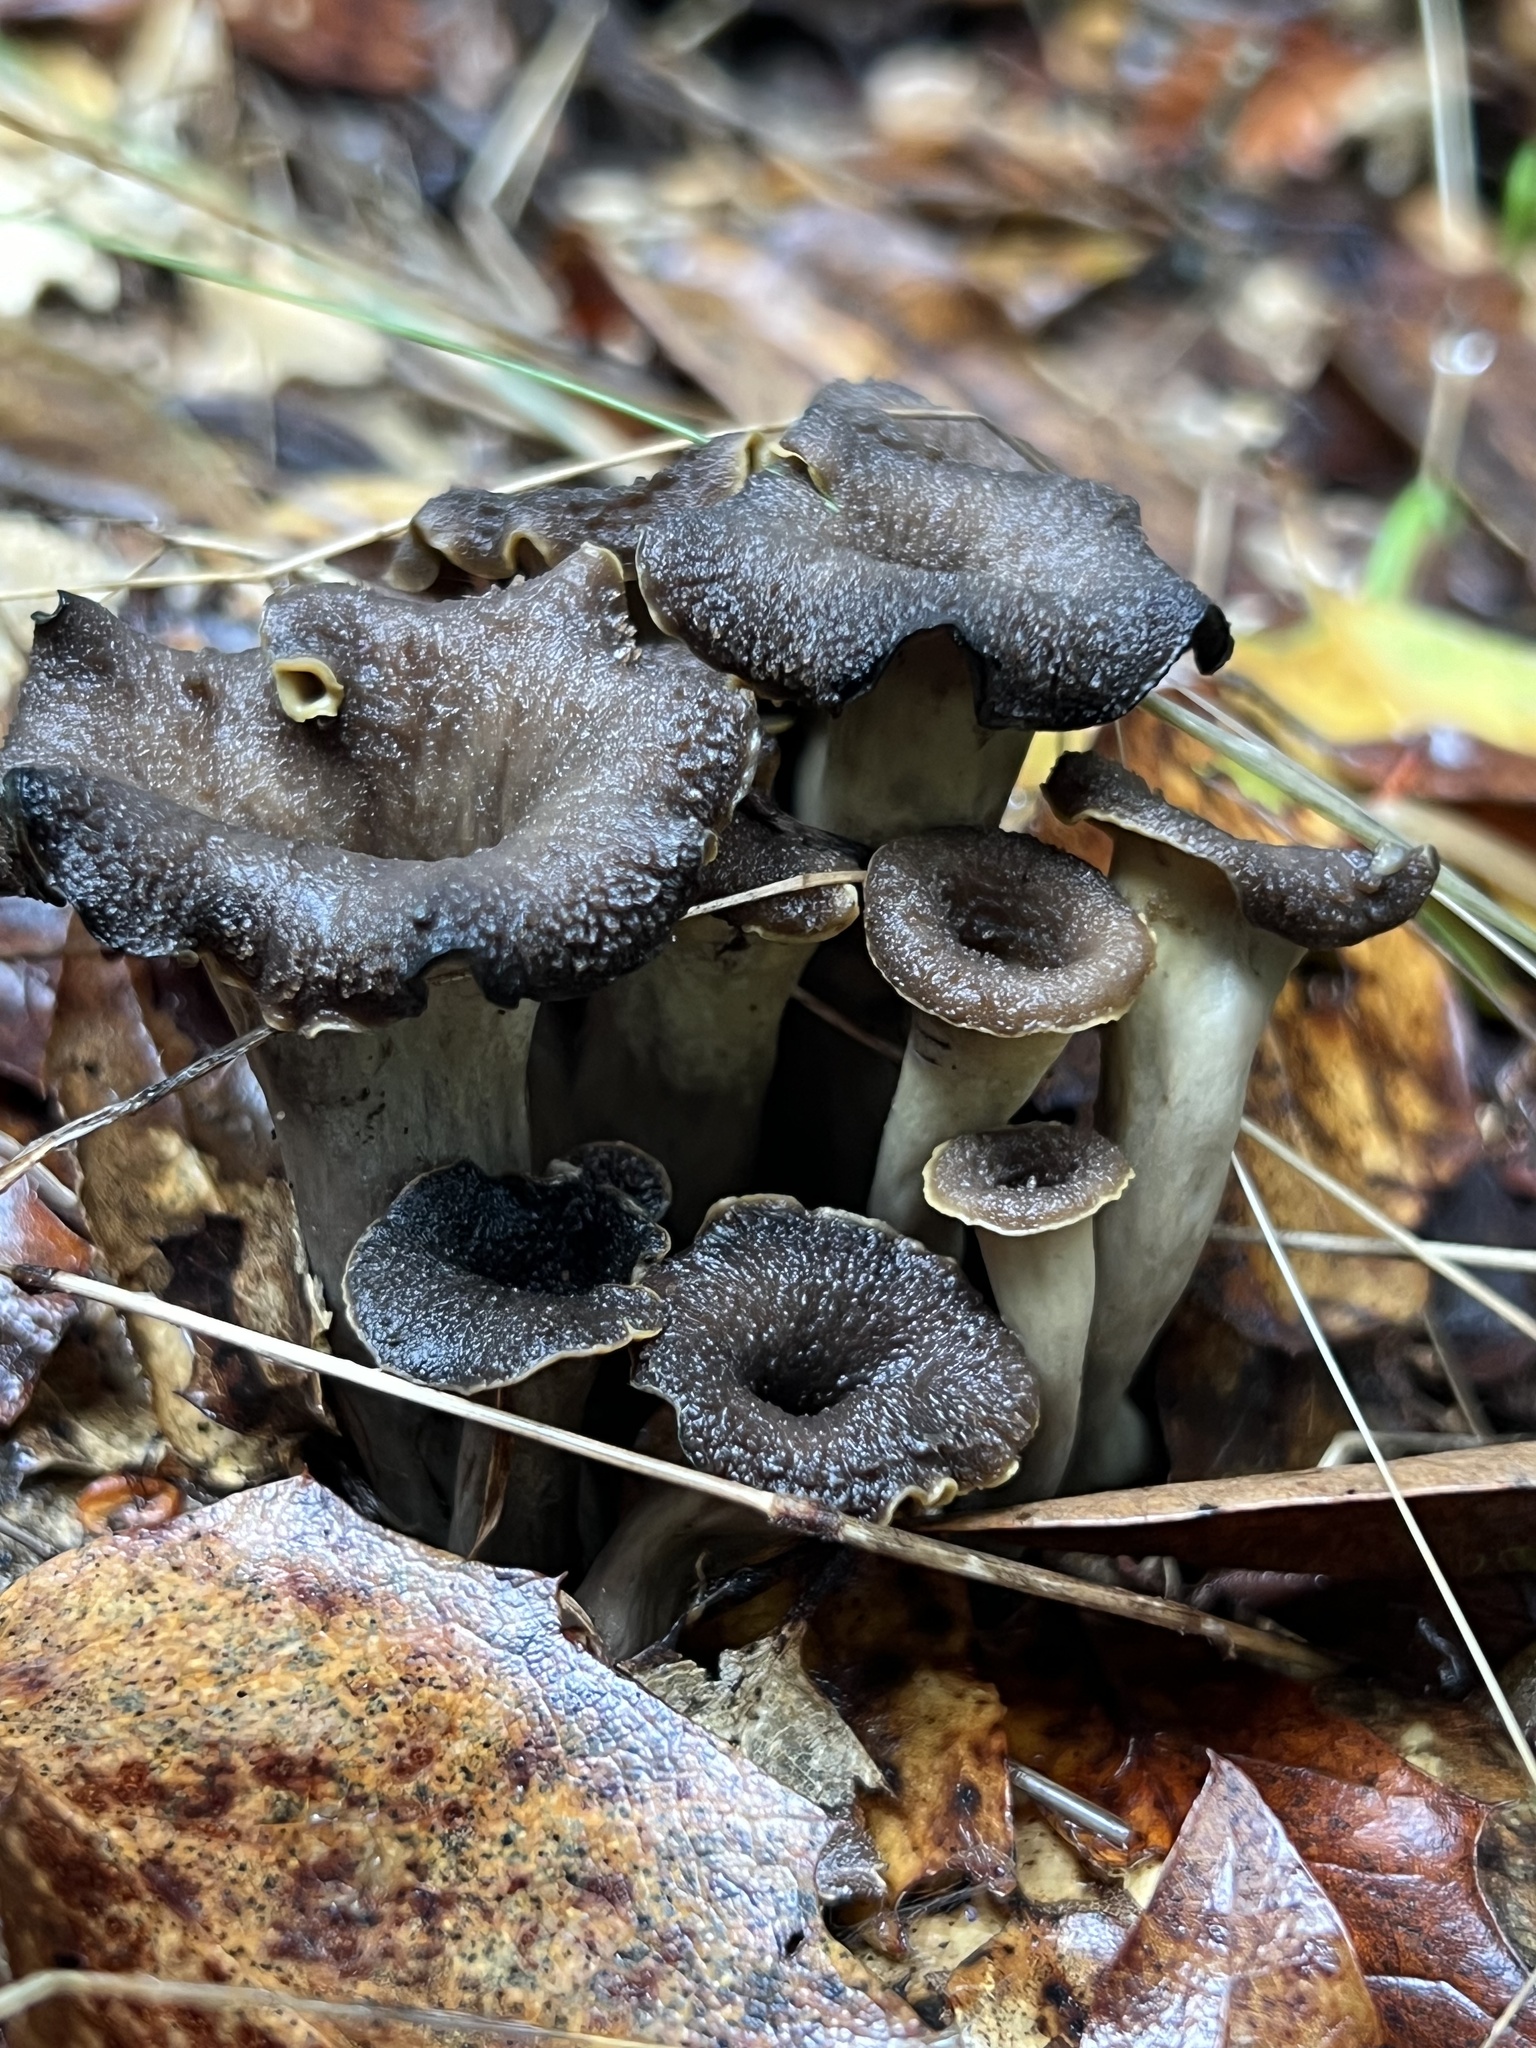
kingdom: Fungi
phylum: Basidiomycota
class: Agaricomycetes
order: Cantharellales
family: Hydnaceae
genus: Craterellus
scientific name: Craterellus calicornucopioides
